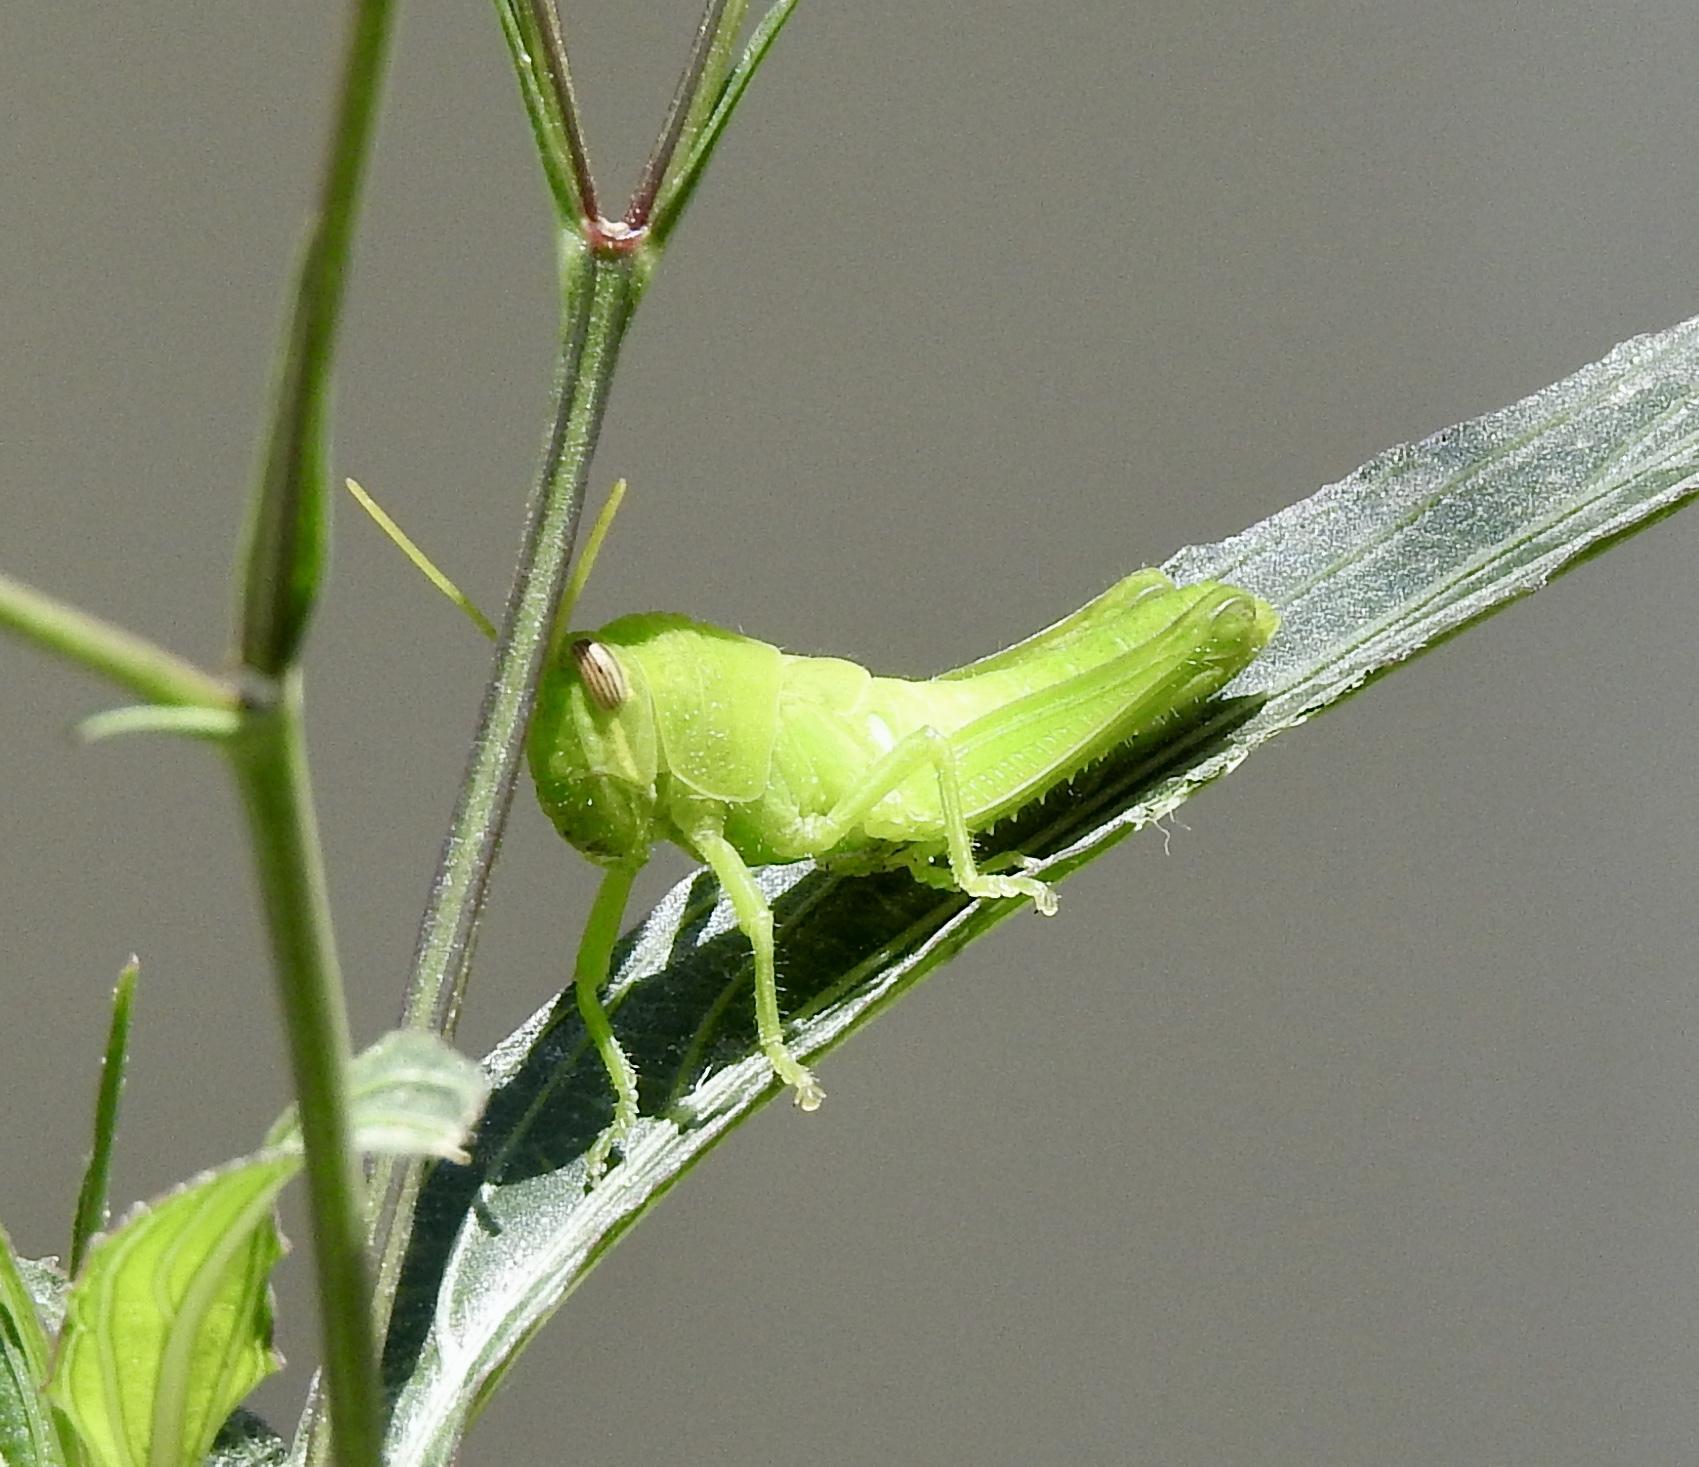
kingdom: Animalia
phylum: Arthropoda
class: Insecta
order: Orthoptera
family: Acrididae
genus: Schistocerca
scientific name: Schistocerca nitens
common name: Vagrant grasshopper
